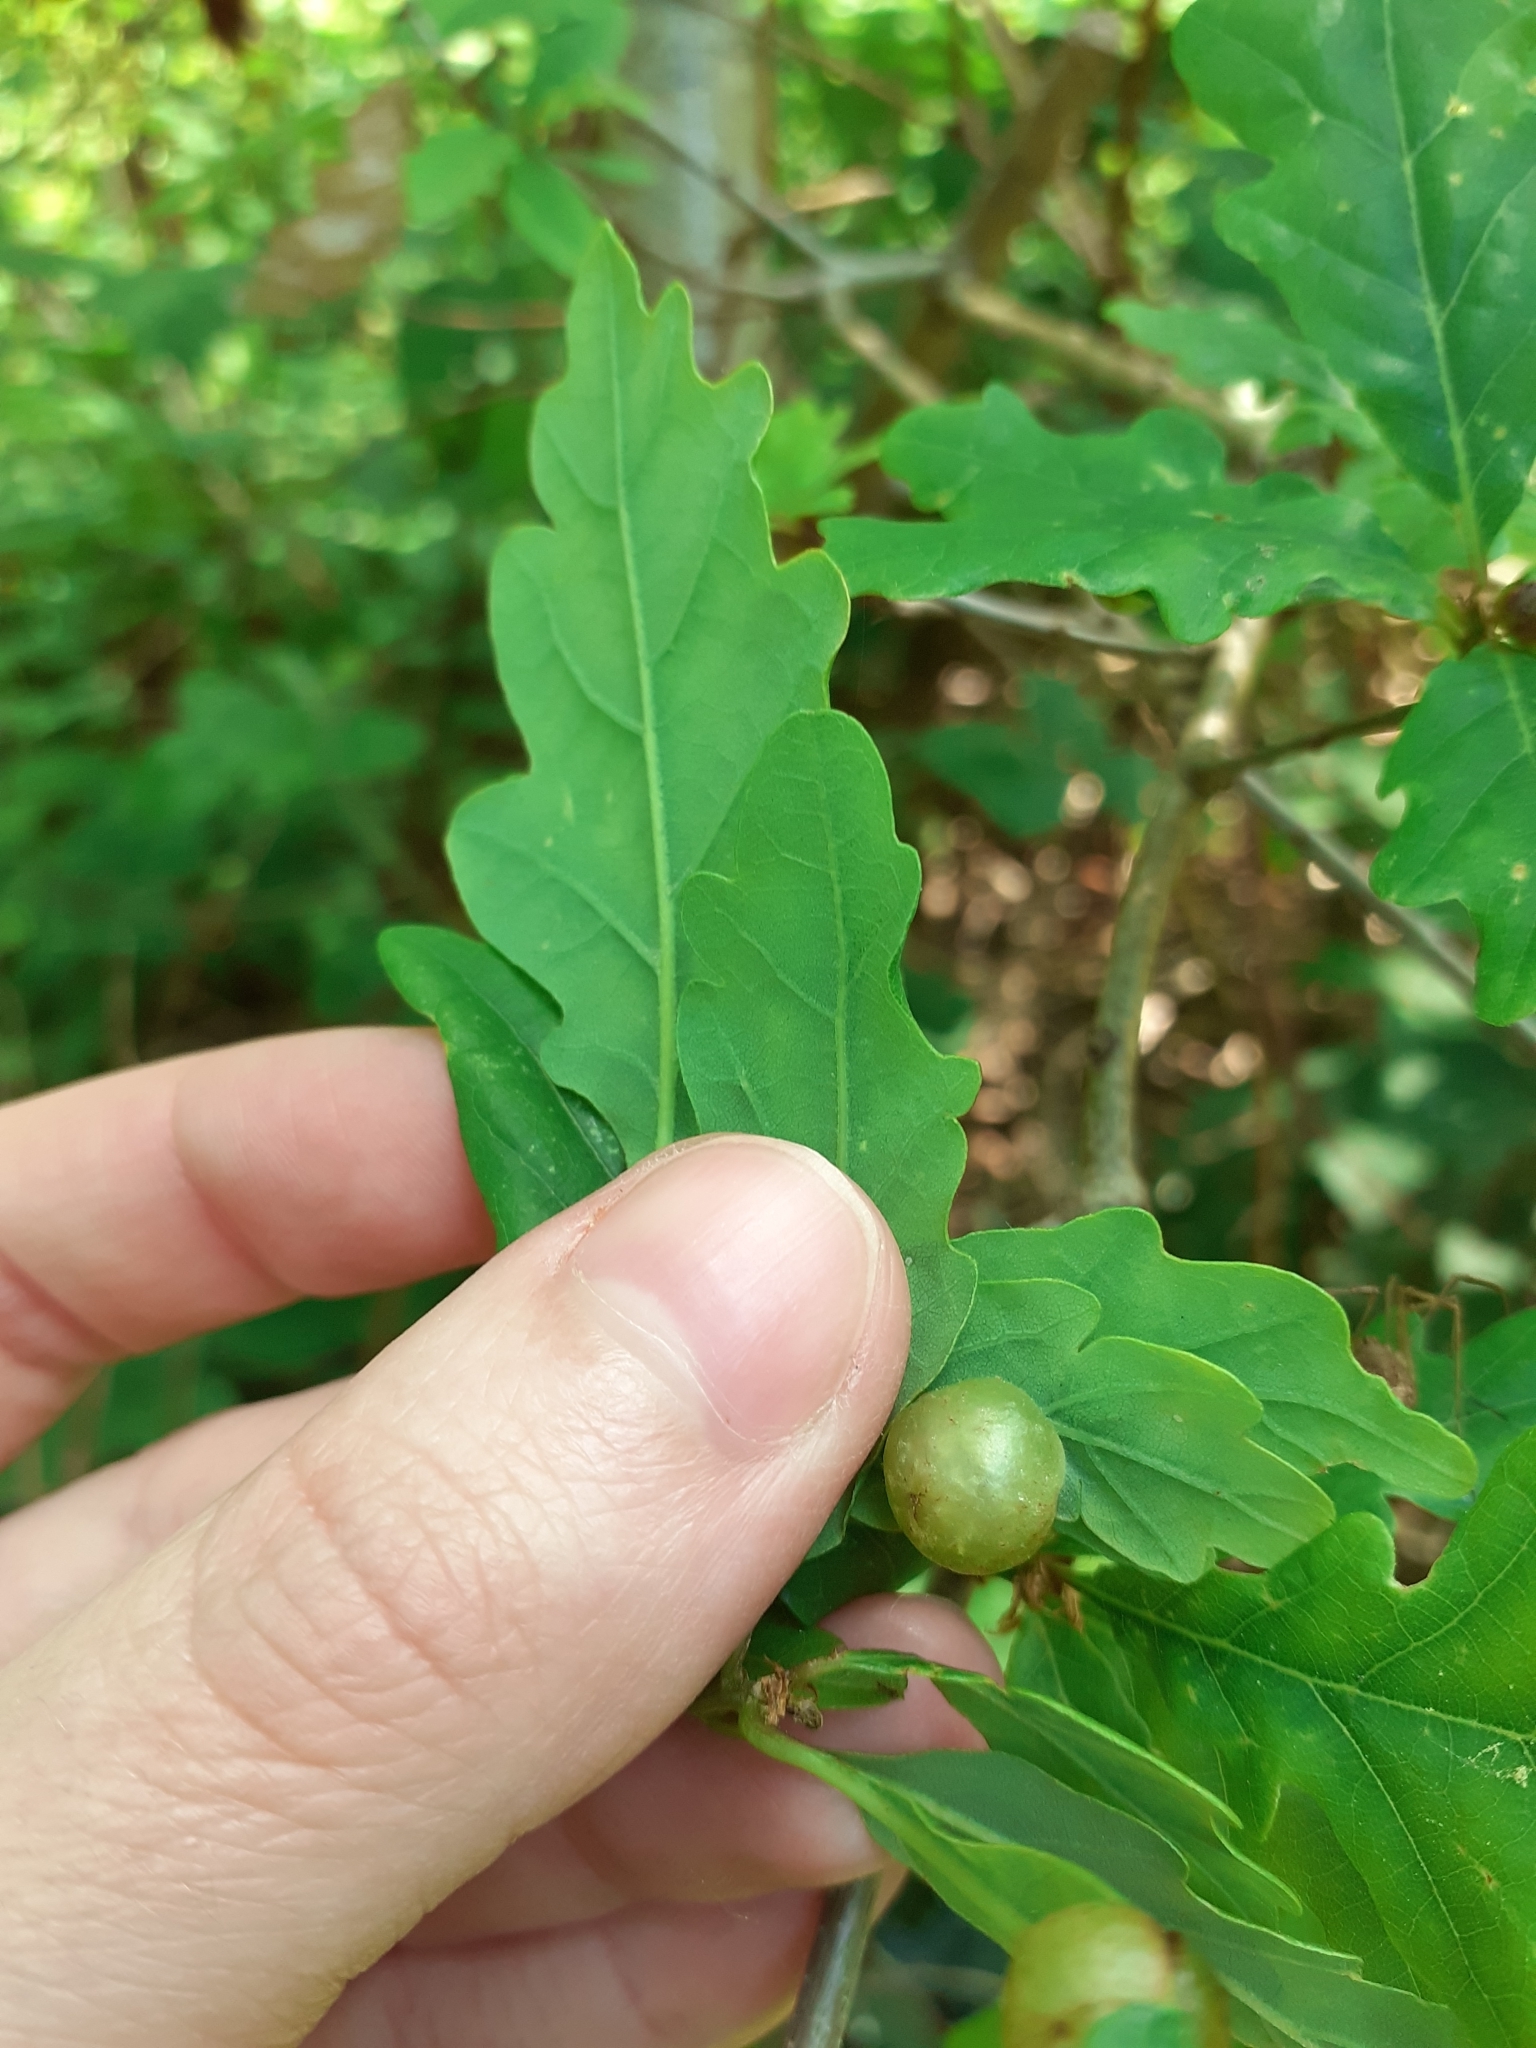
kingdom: Animalia
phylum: Arthropoda
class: Insecta
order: Hymenoptera
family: Cynipidae
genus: Neuroterus
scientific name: Neuroterus quercusbaccarum
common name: Common spangle gall
